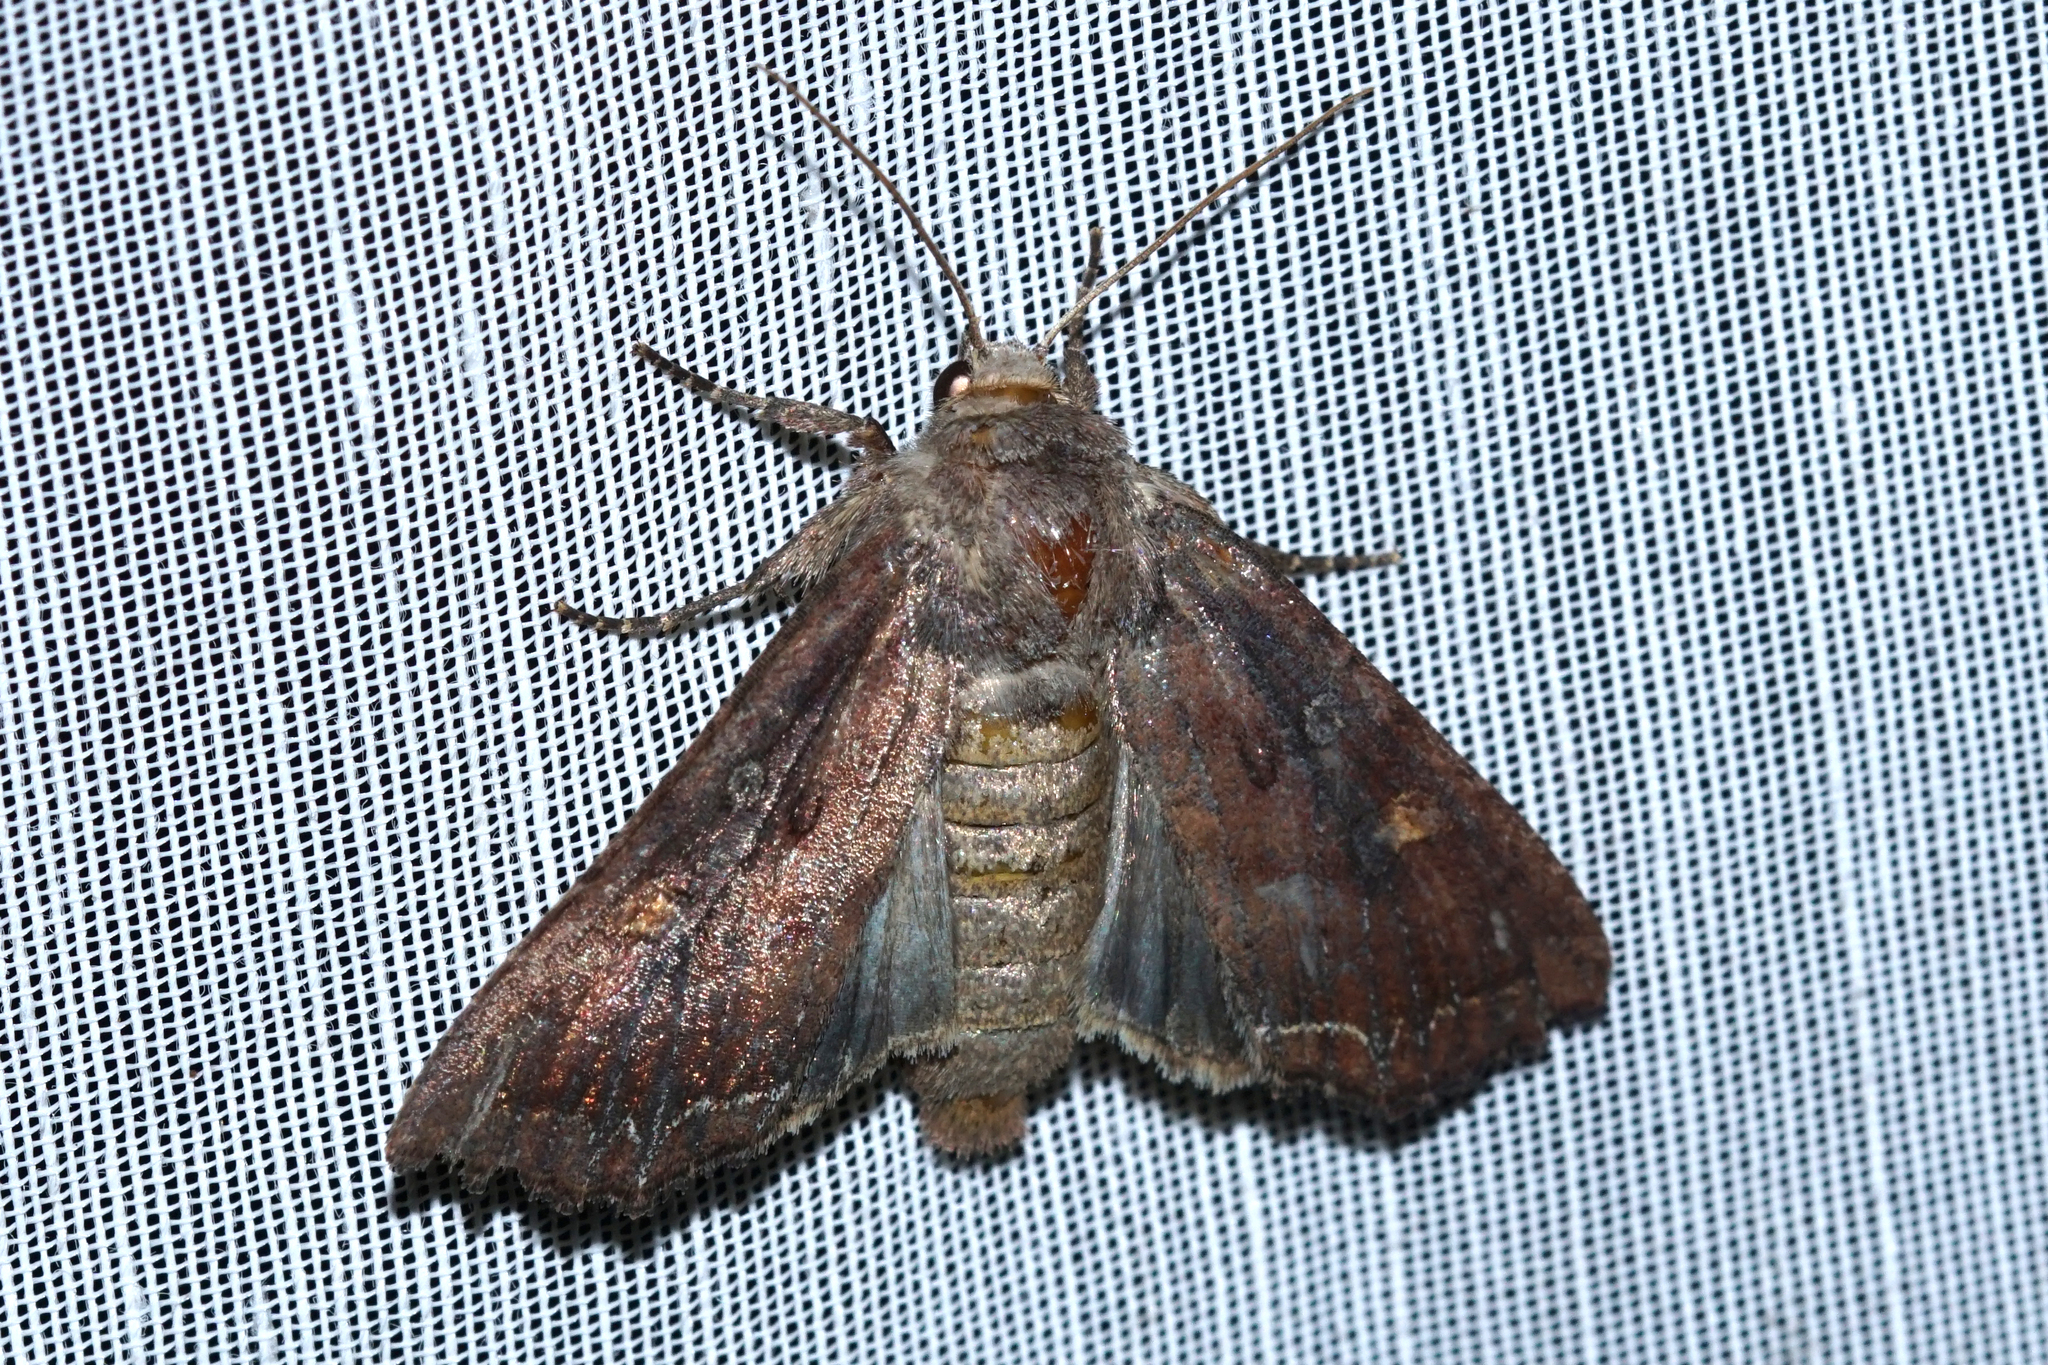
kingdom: Animalia
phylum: Arthropoda
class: Insecta
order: Lepidoptera
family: Noctuidae
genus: Lacanobia
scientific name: Lacanobia oleracea
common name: Bright-line brown-eye
